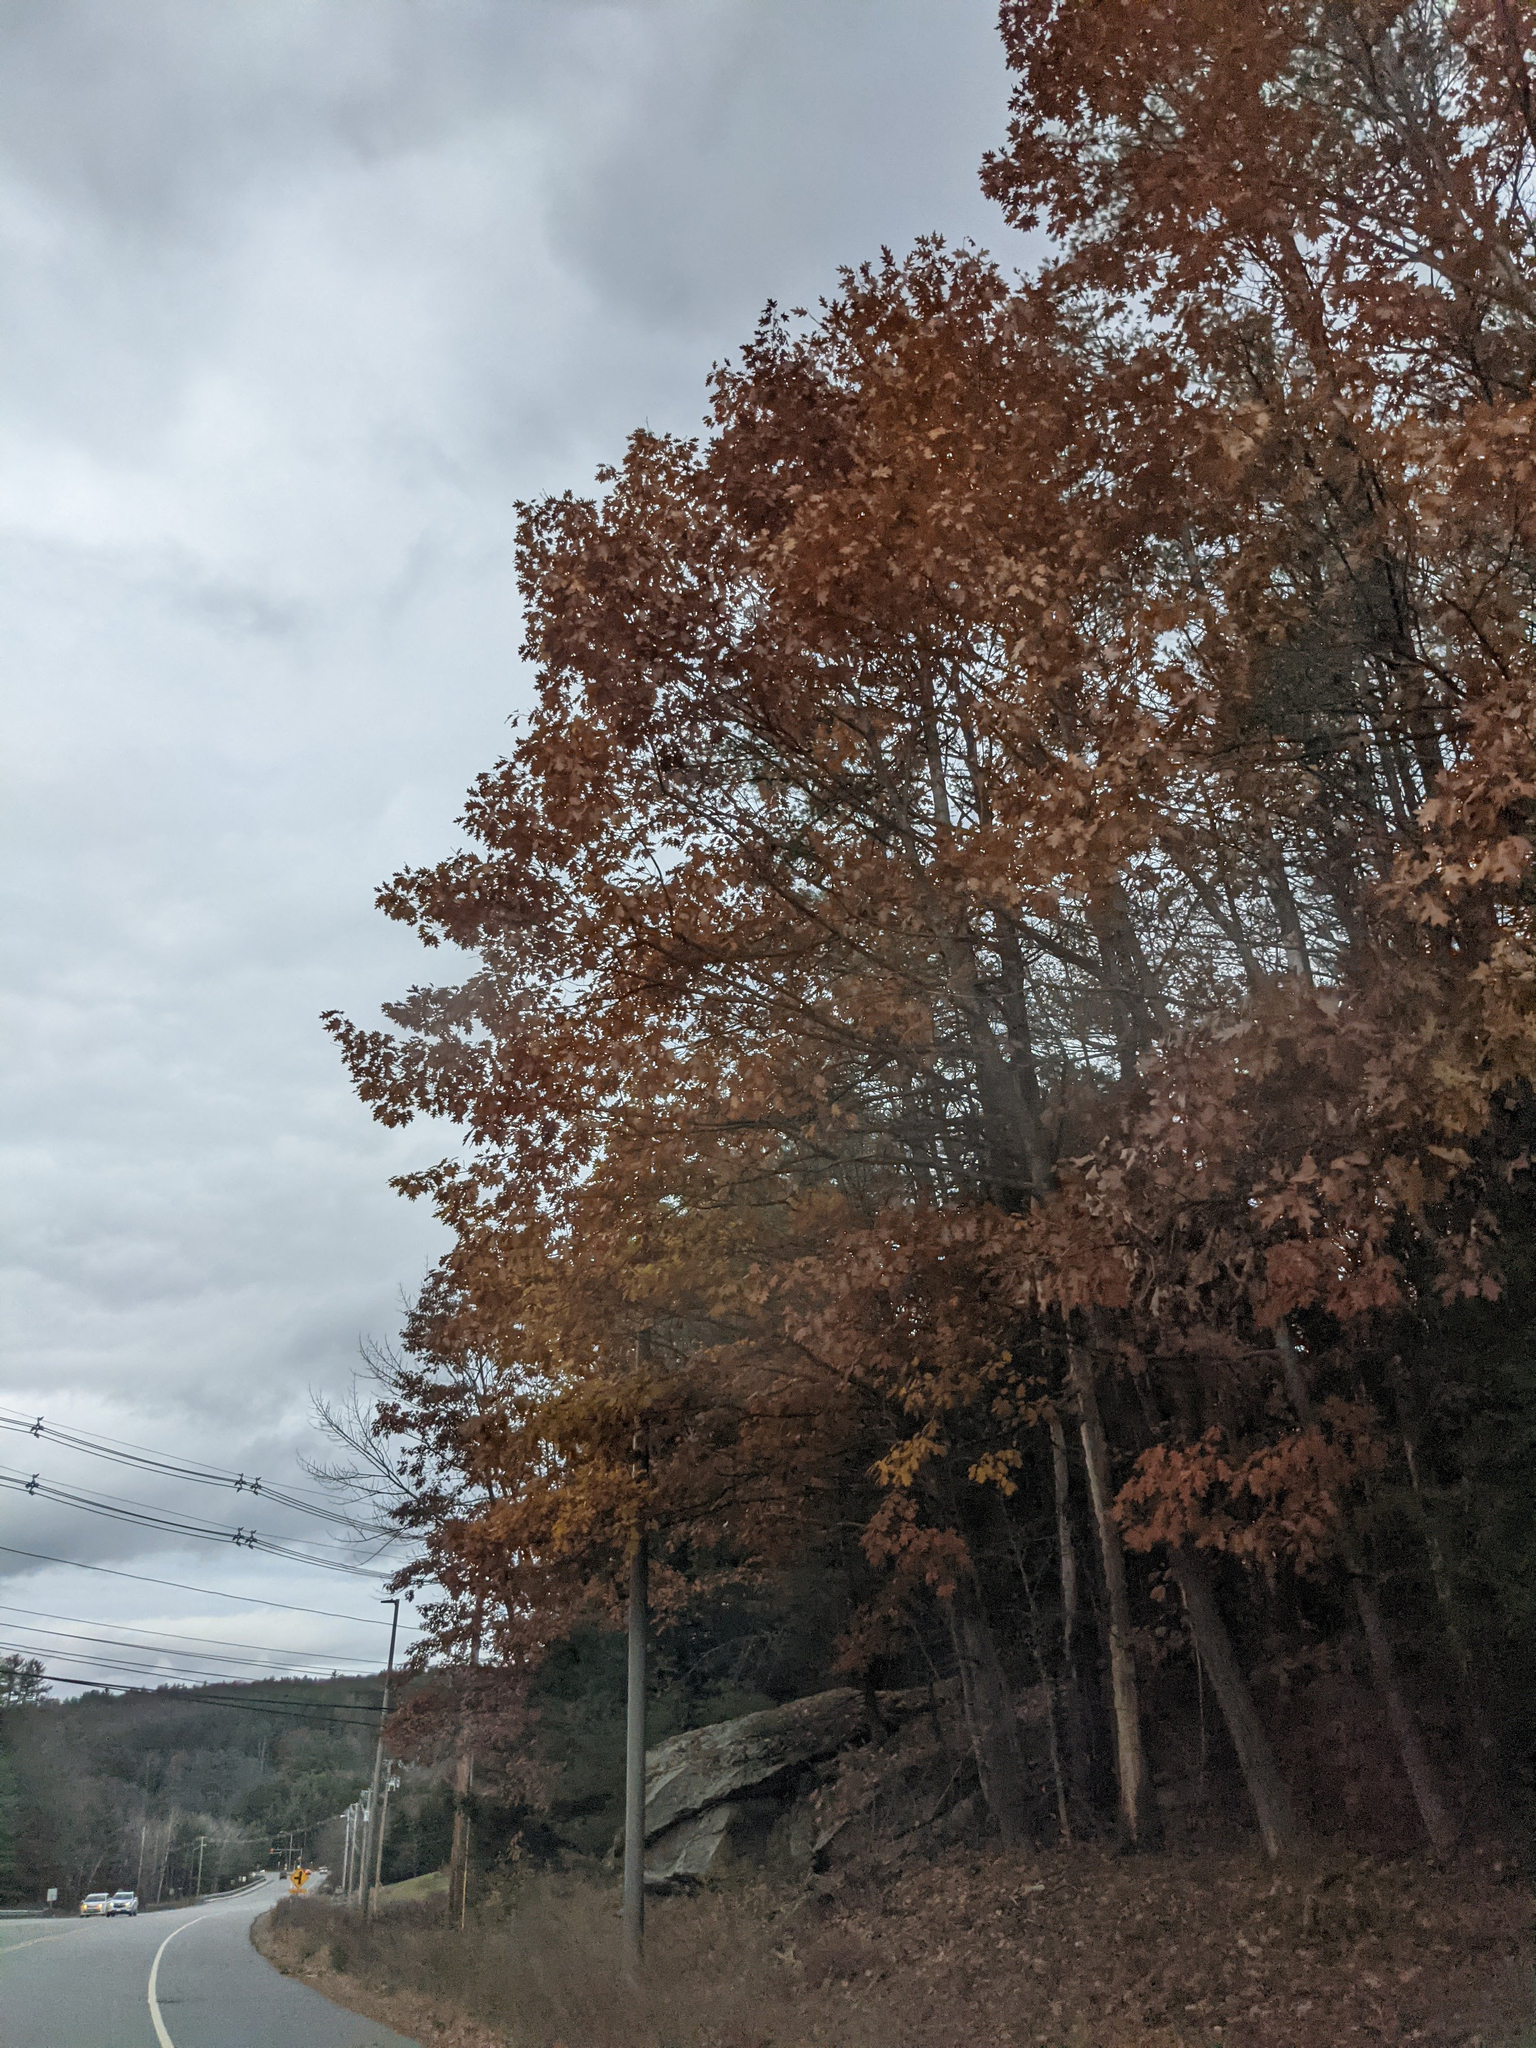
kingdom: Plantae
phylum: Tracheophyta
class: Magnoliopsida
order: Fagales
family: Fagaceae
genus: Quercus
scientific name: Quercus rubra
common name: Red oak
